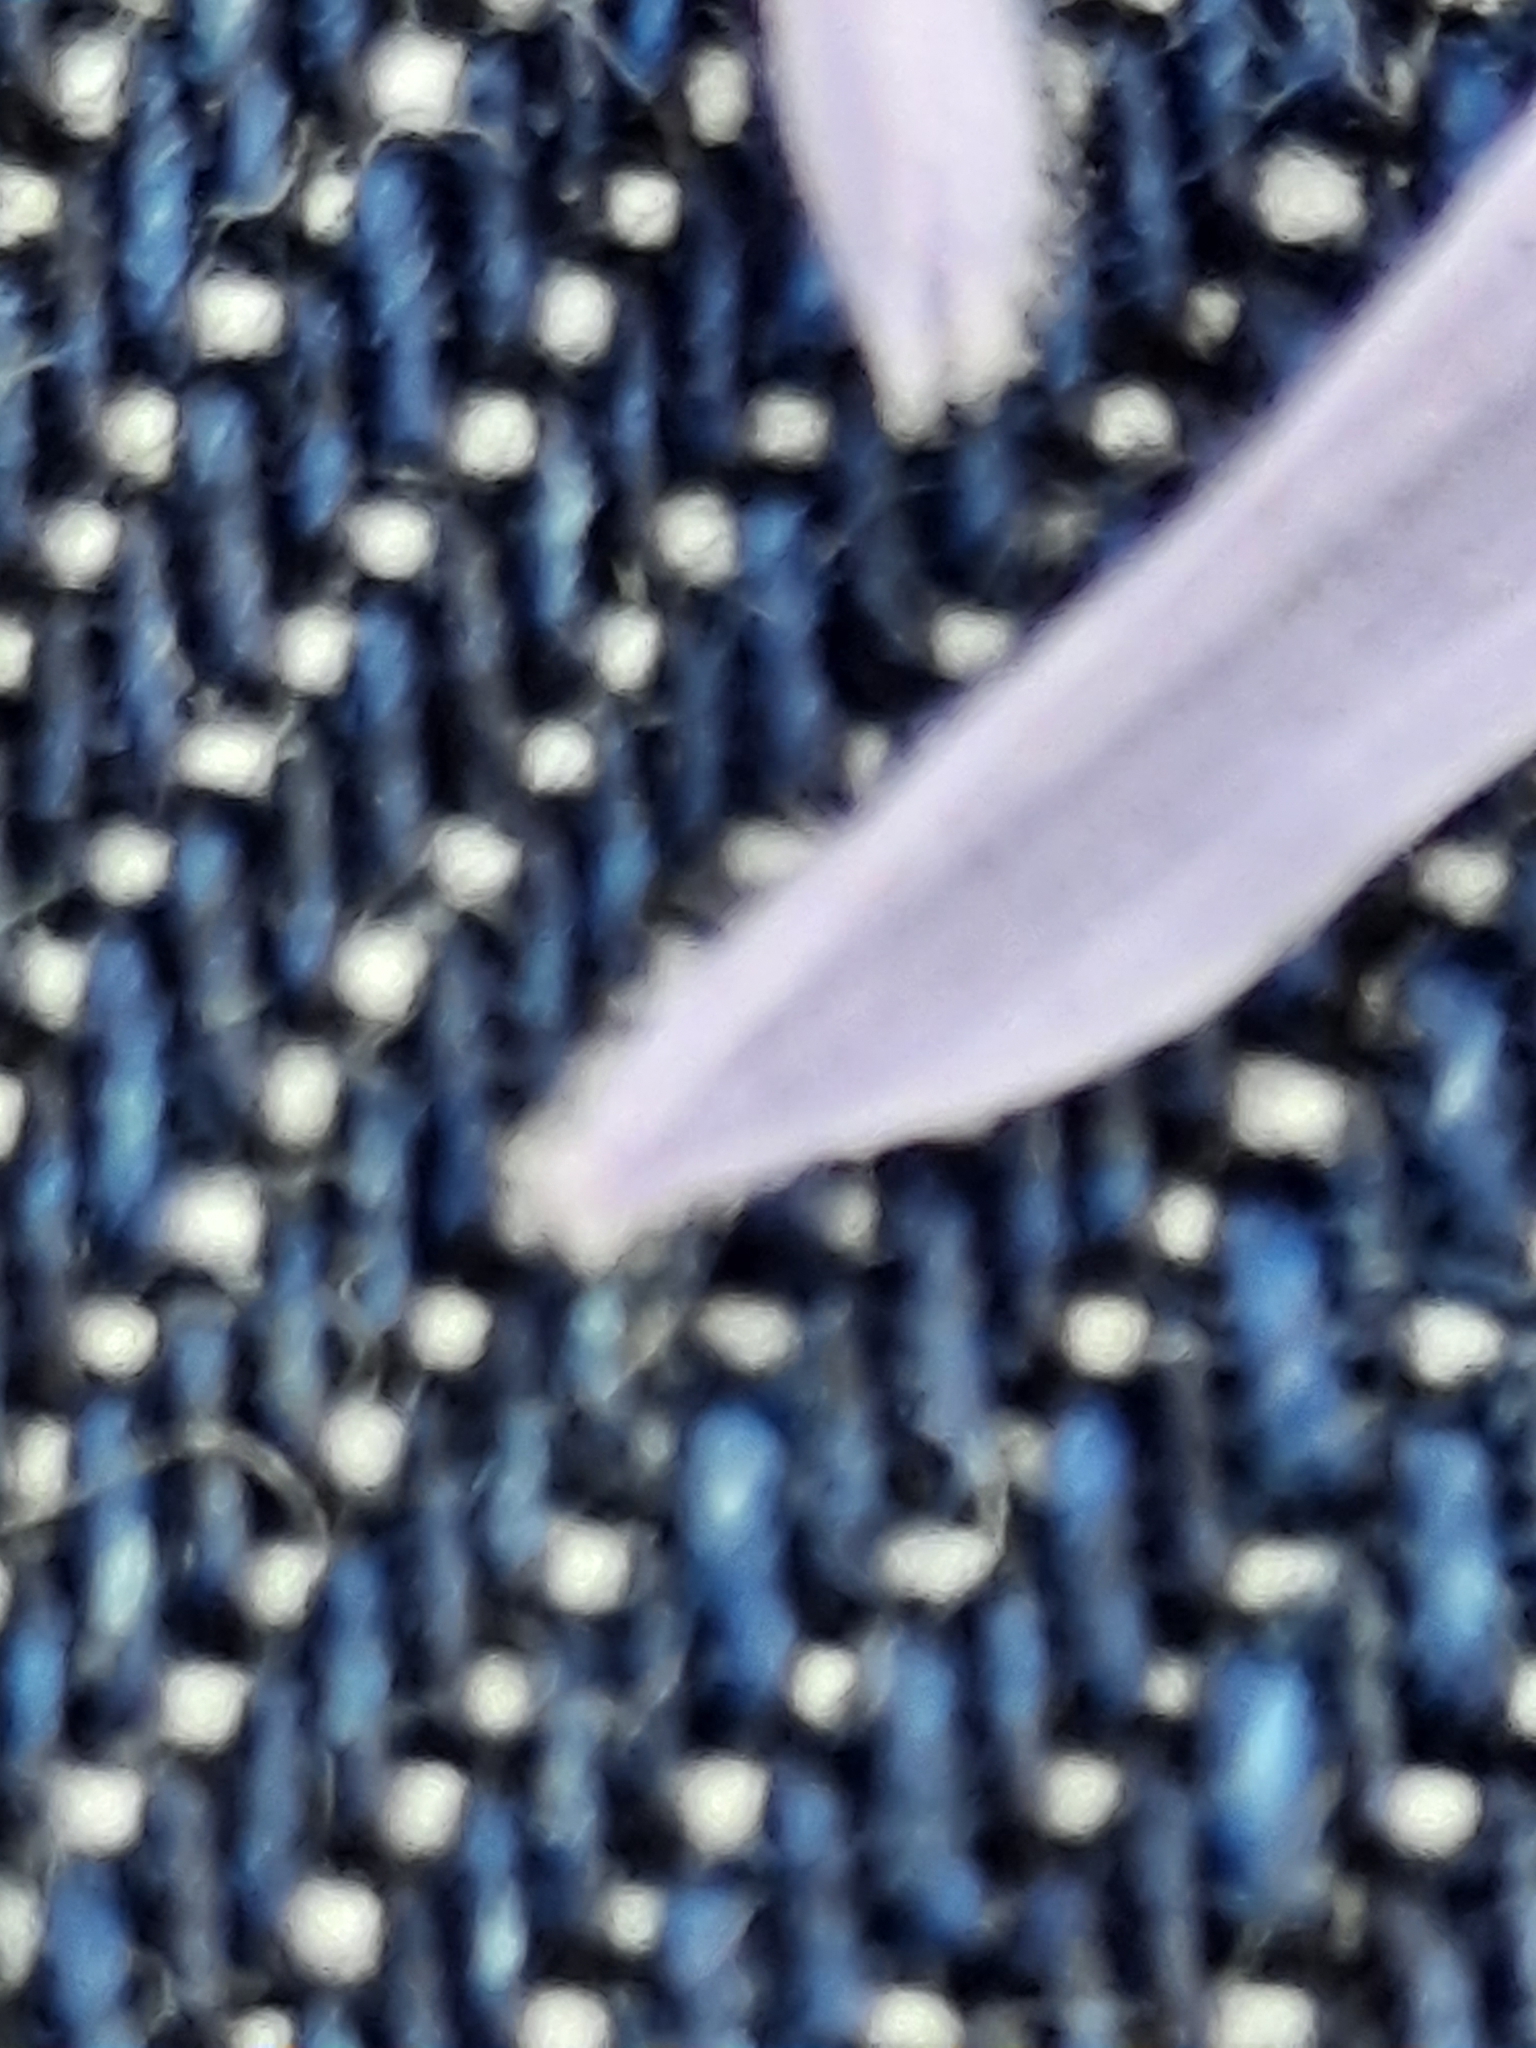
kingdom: Plantae
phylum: Tracheophyta
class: Magnoliopsida
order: Asterales
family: Asteraceae
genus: Cichorium
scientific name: Cichorium intybus
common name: Chicory
